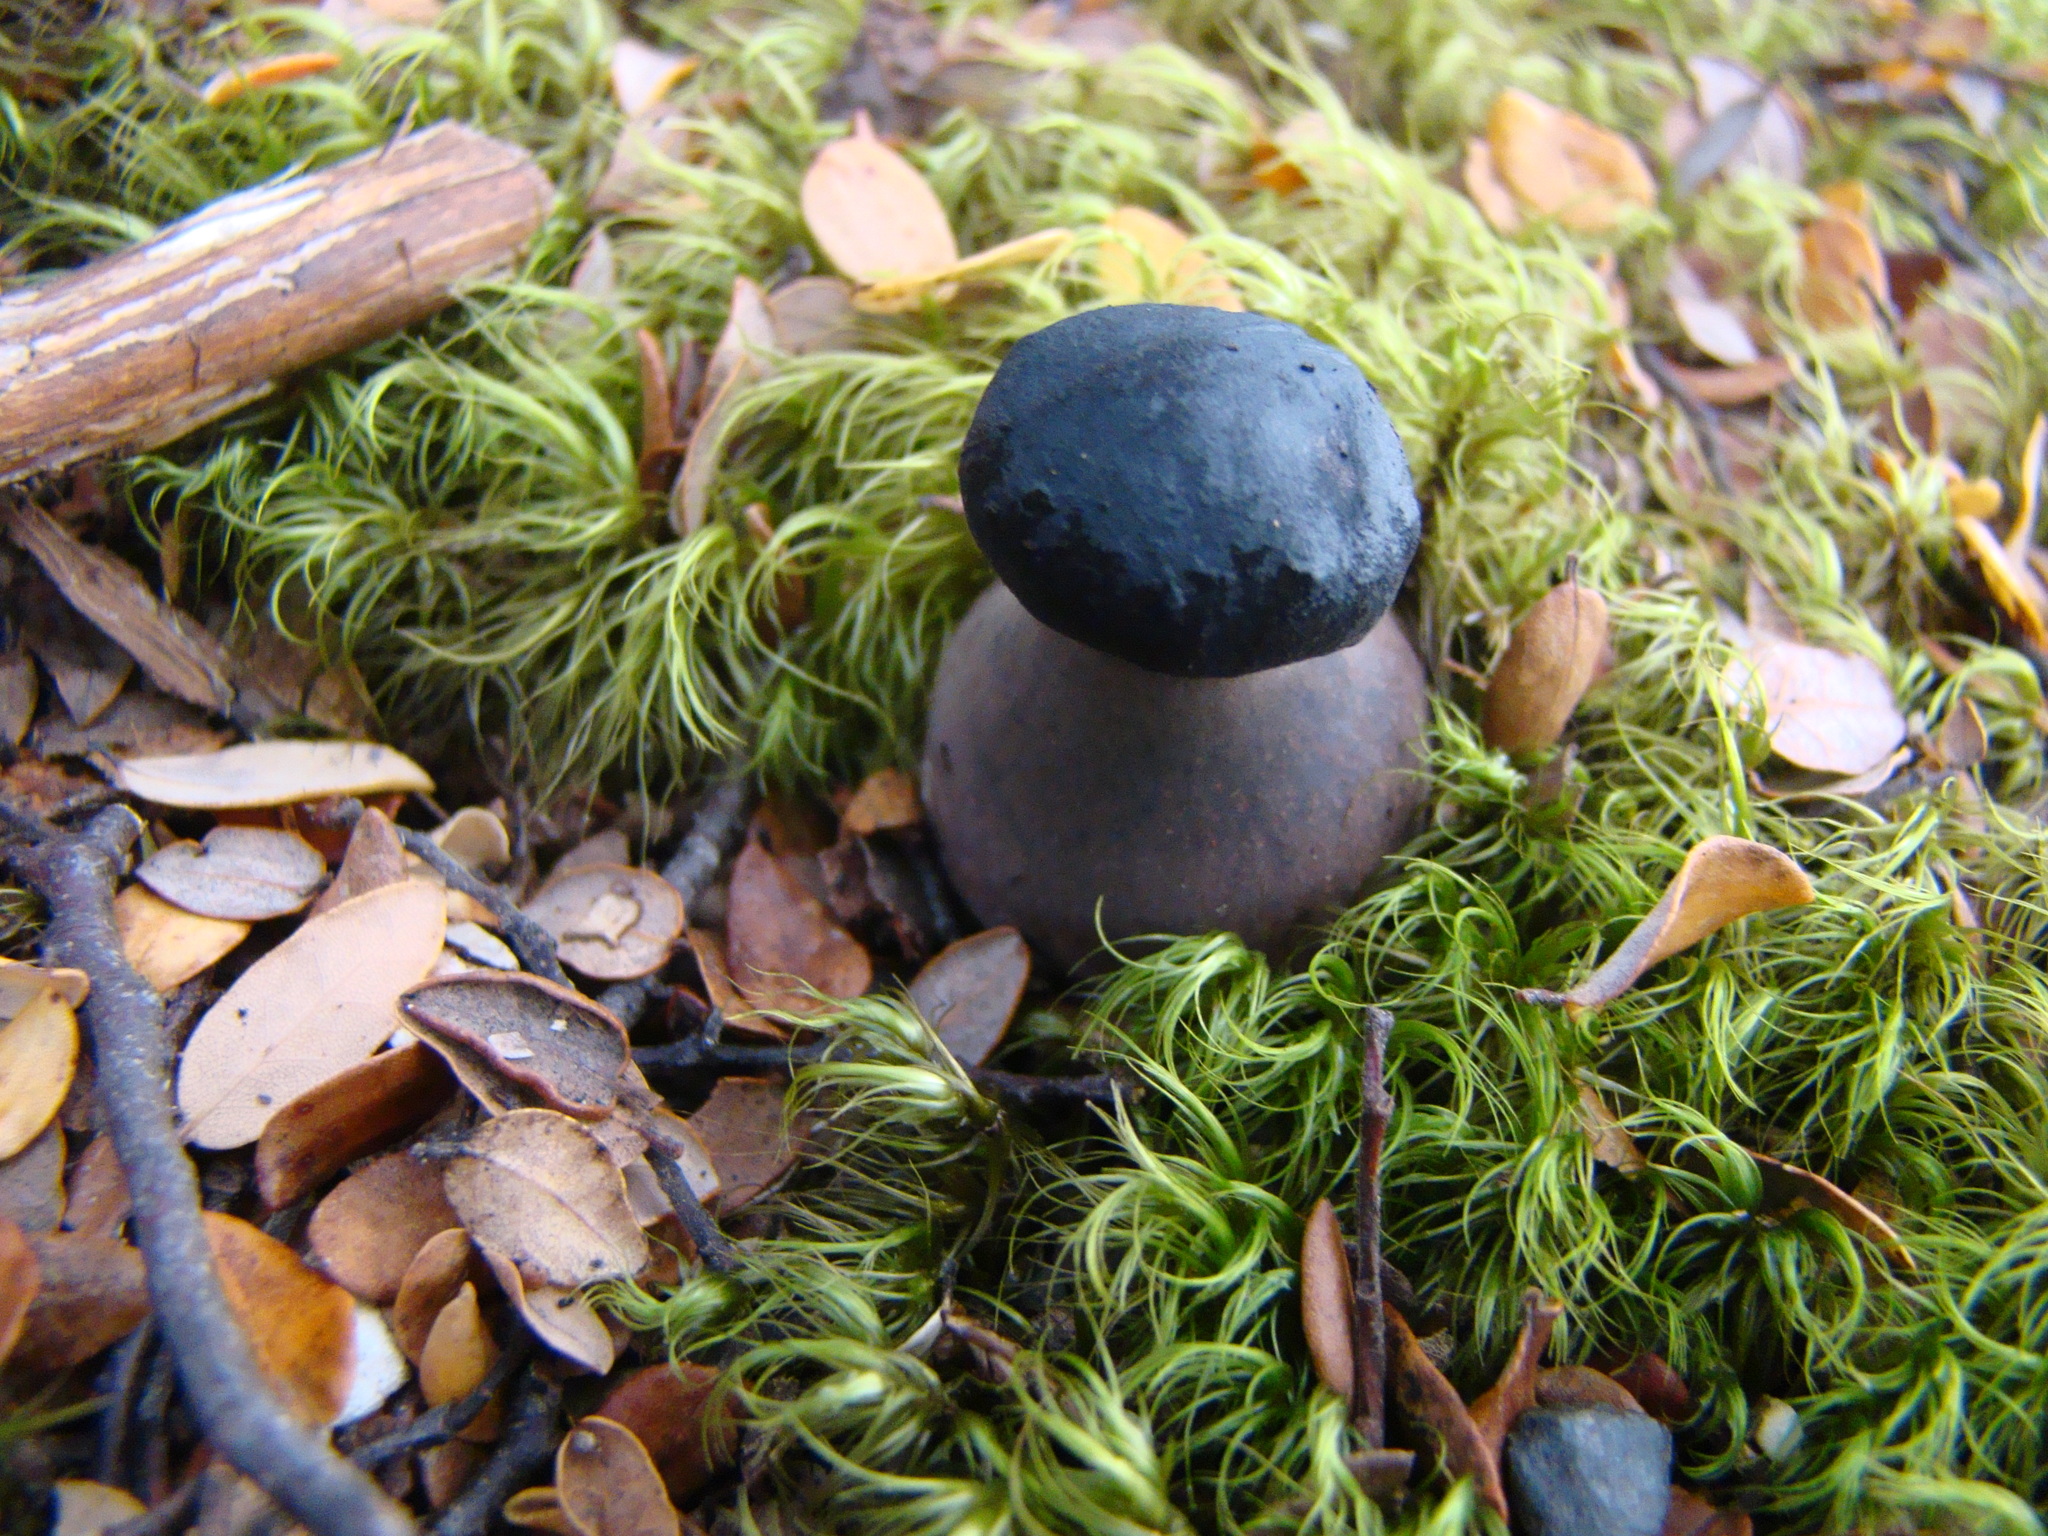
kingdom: Fungi
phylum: Basidiomycota
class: Agaricomycetes
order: Boletales
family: Boletaceae
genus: Porphyrellus
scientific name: Porphyrellus formosus
